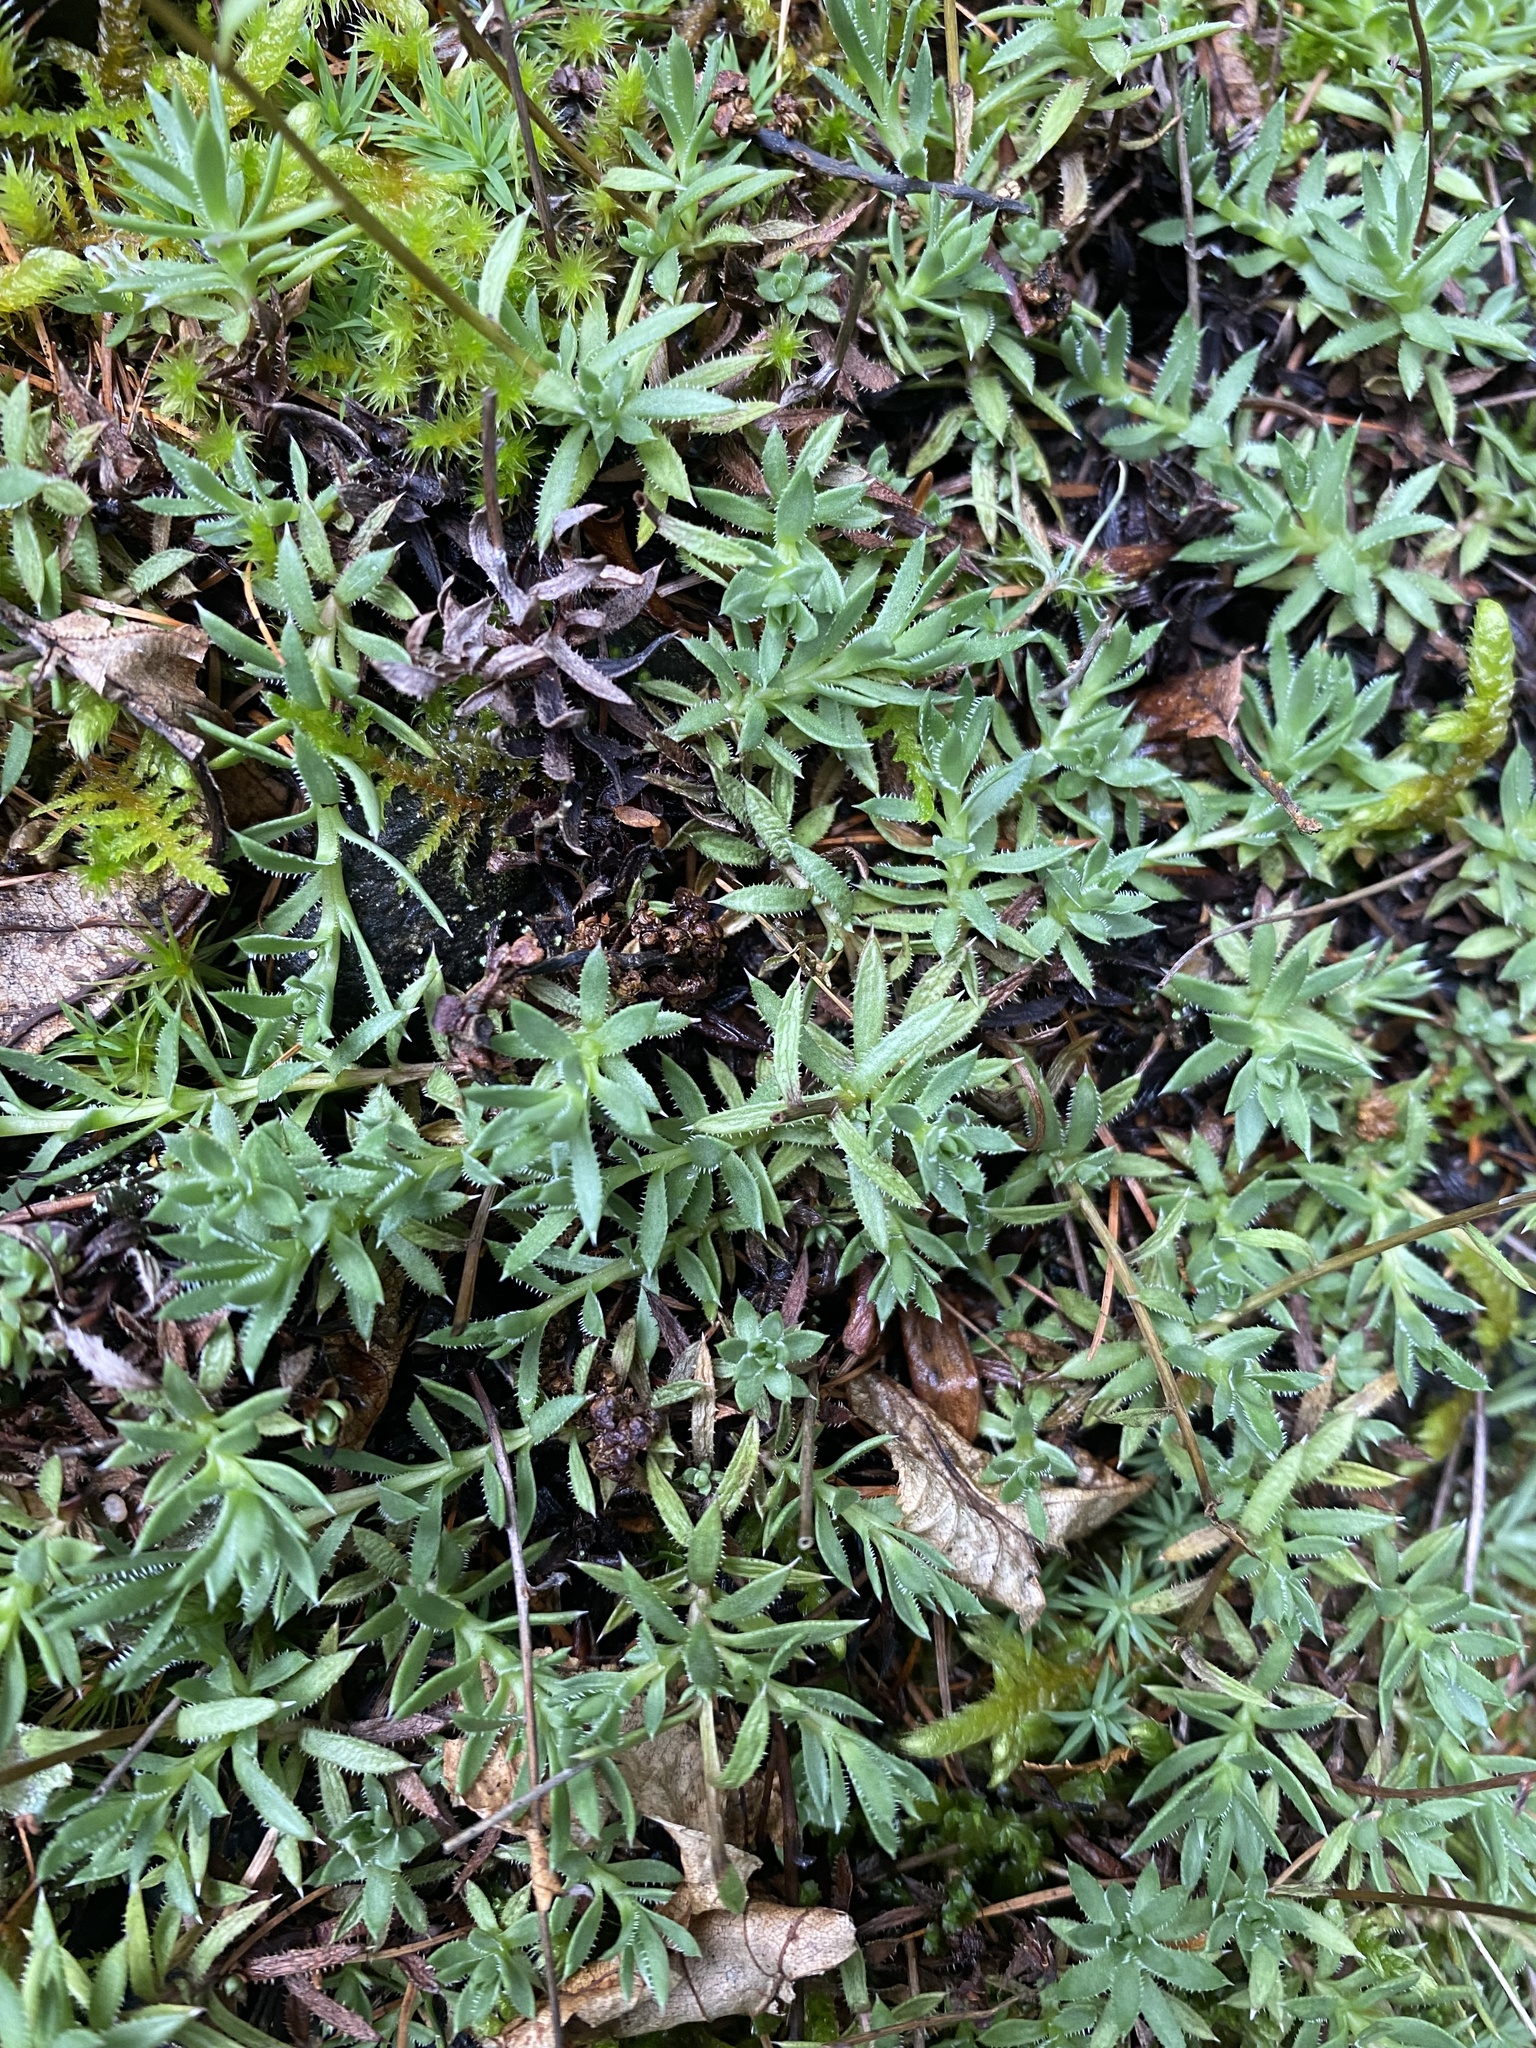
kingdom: Plantae
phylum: Tracheophyta
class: Magnoliopsida
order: Saxifragales
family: Saxifragaceae
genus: Saxifraga
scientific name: Saxifraga bronchialis
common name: Matted saxifrage
